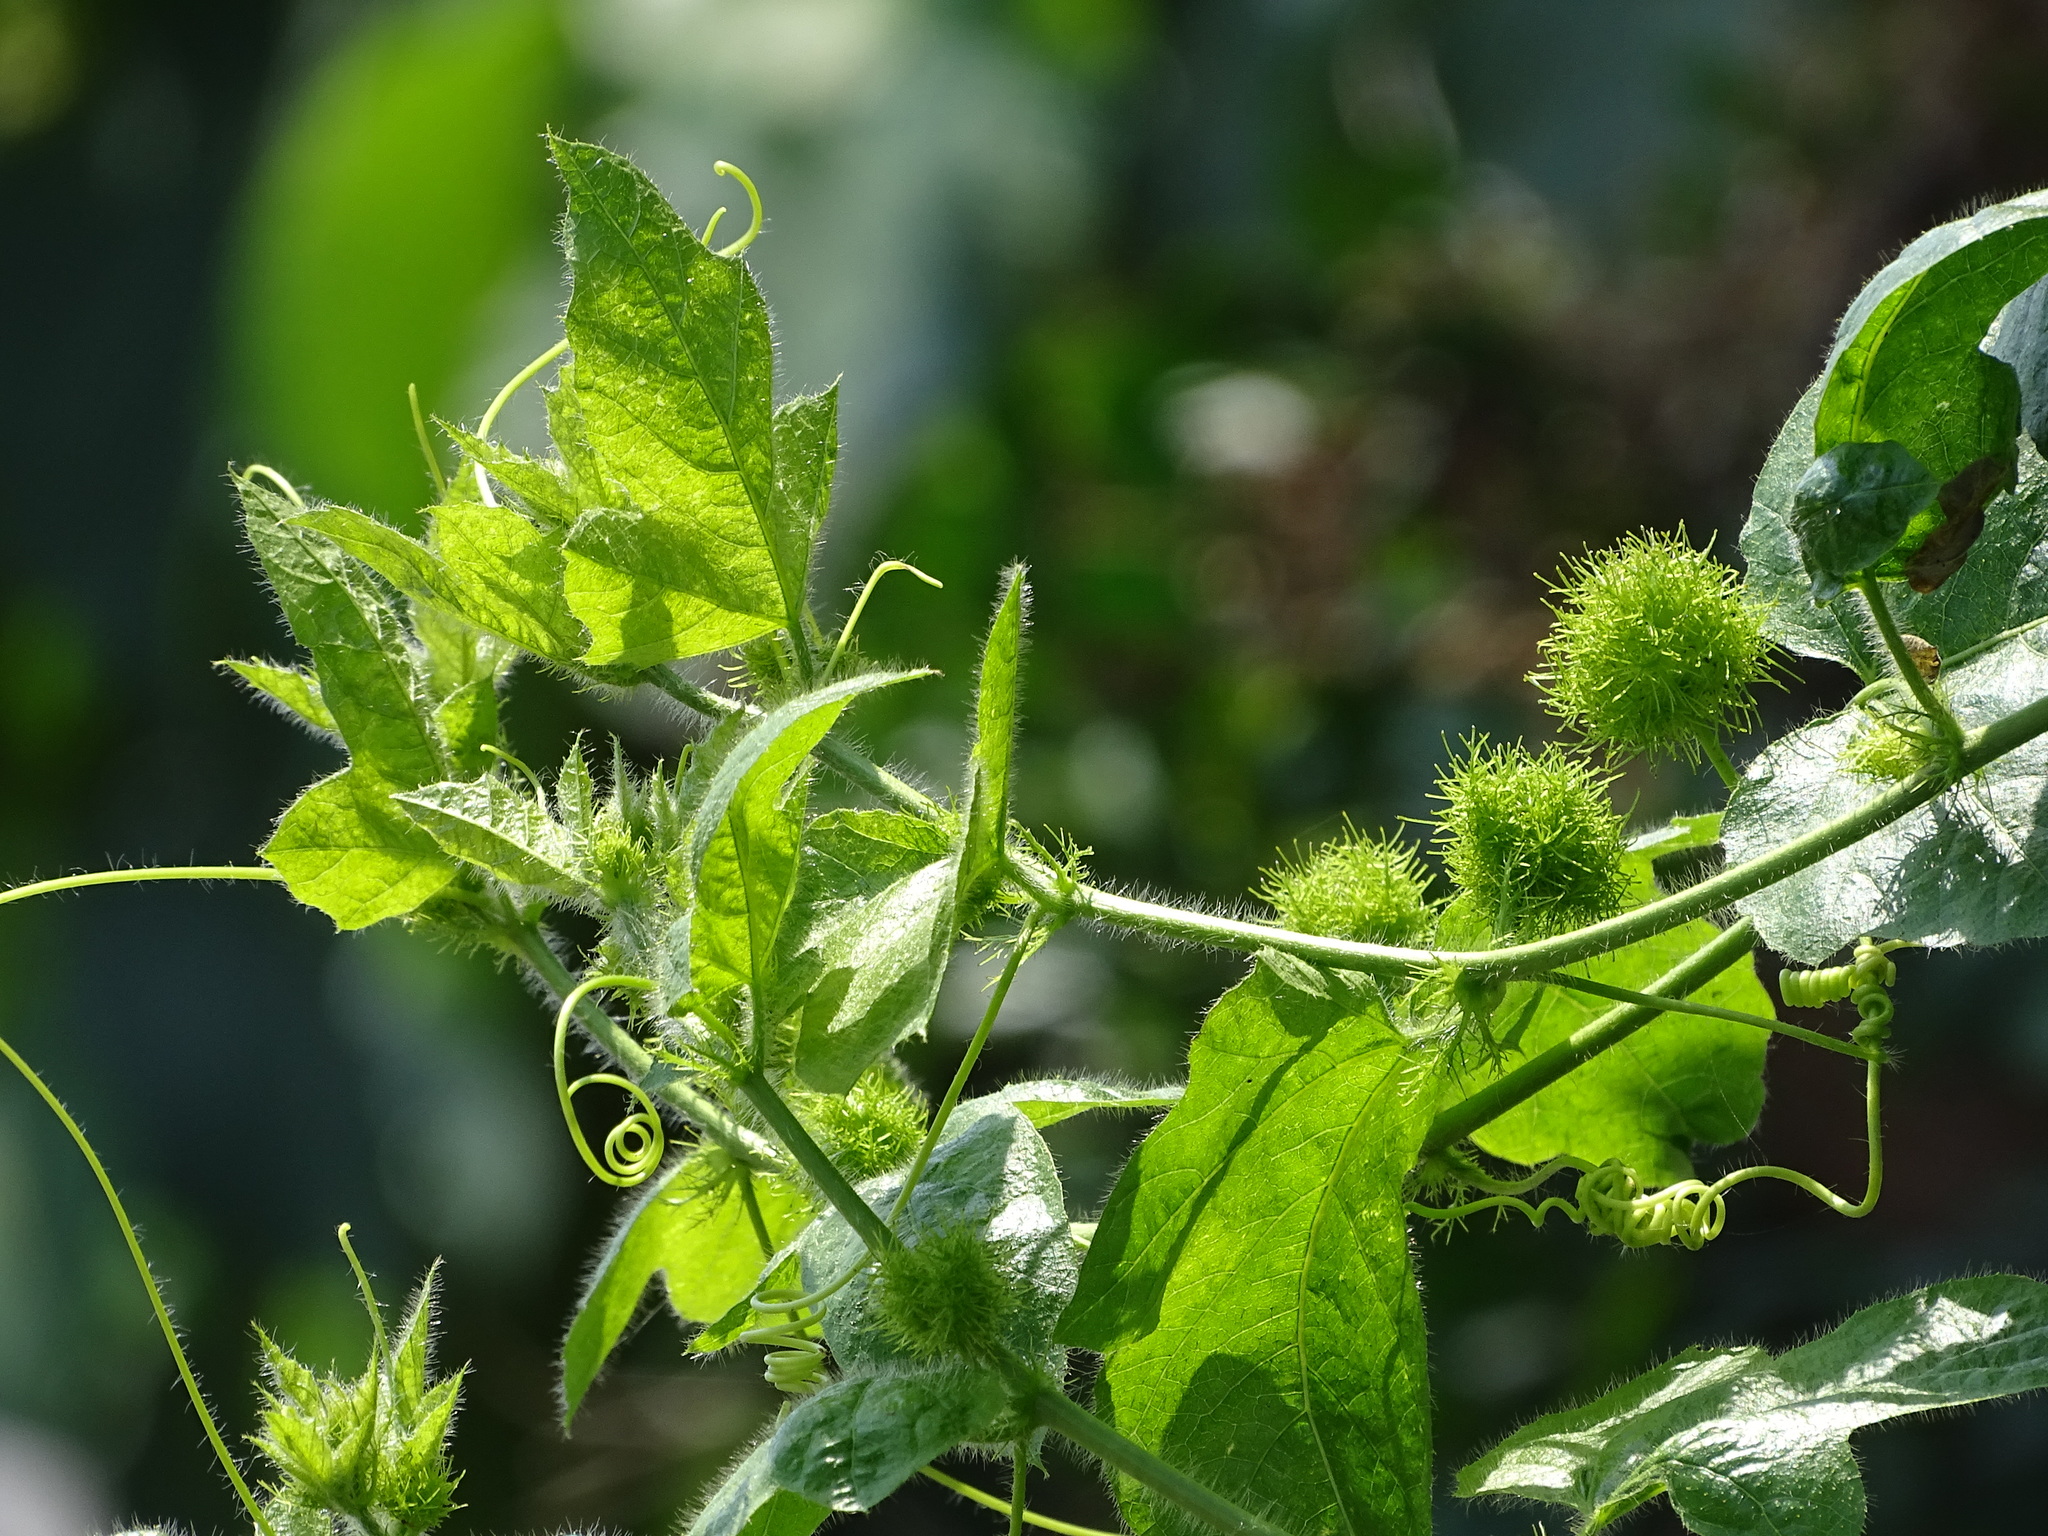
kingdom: Plantae
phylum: Tracheophyta
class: Magnoliopsida
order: Malpighiales
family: Passifloraceae
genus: Passiflora
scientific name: Passiflora vesicaria
